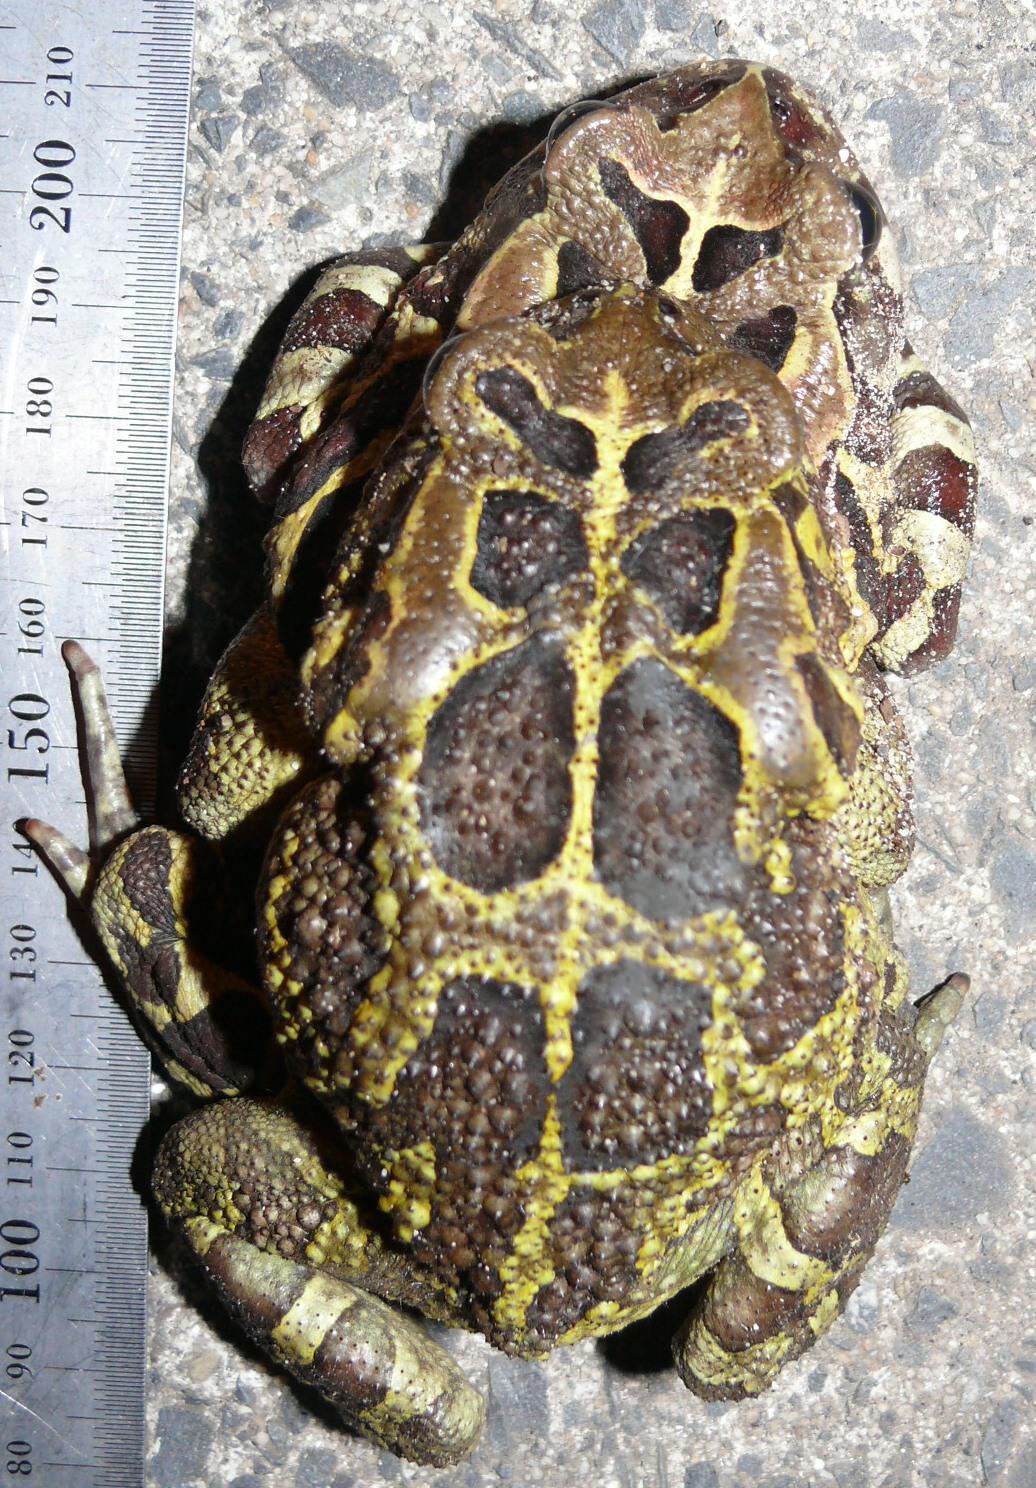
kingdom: Animalia
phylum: Chordata
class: Amphibia
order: Anura
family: Bufonidae
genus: Sclerophrys
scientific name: Sclerophrys pantherina
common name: Panther toad
